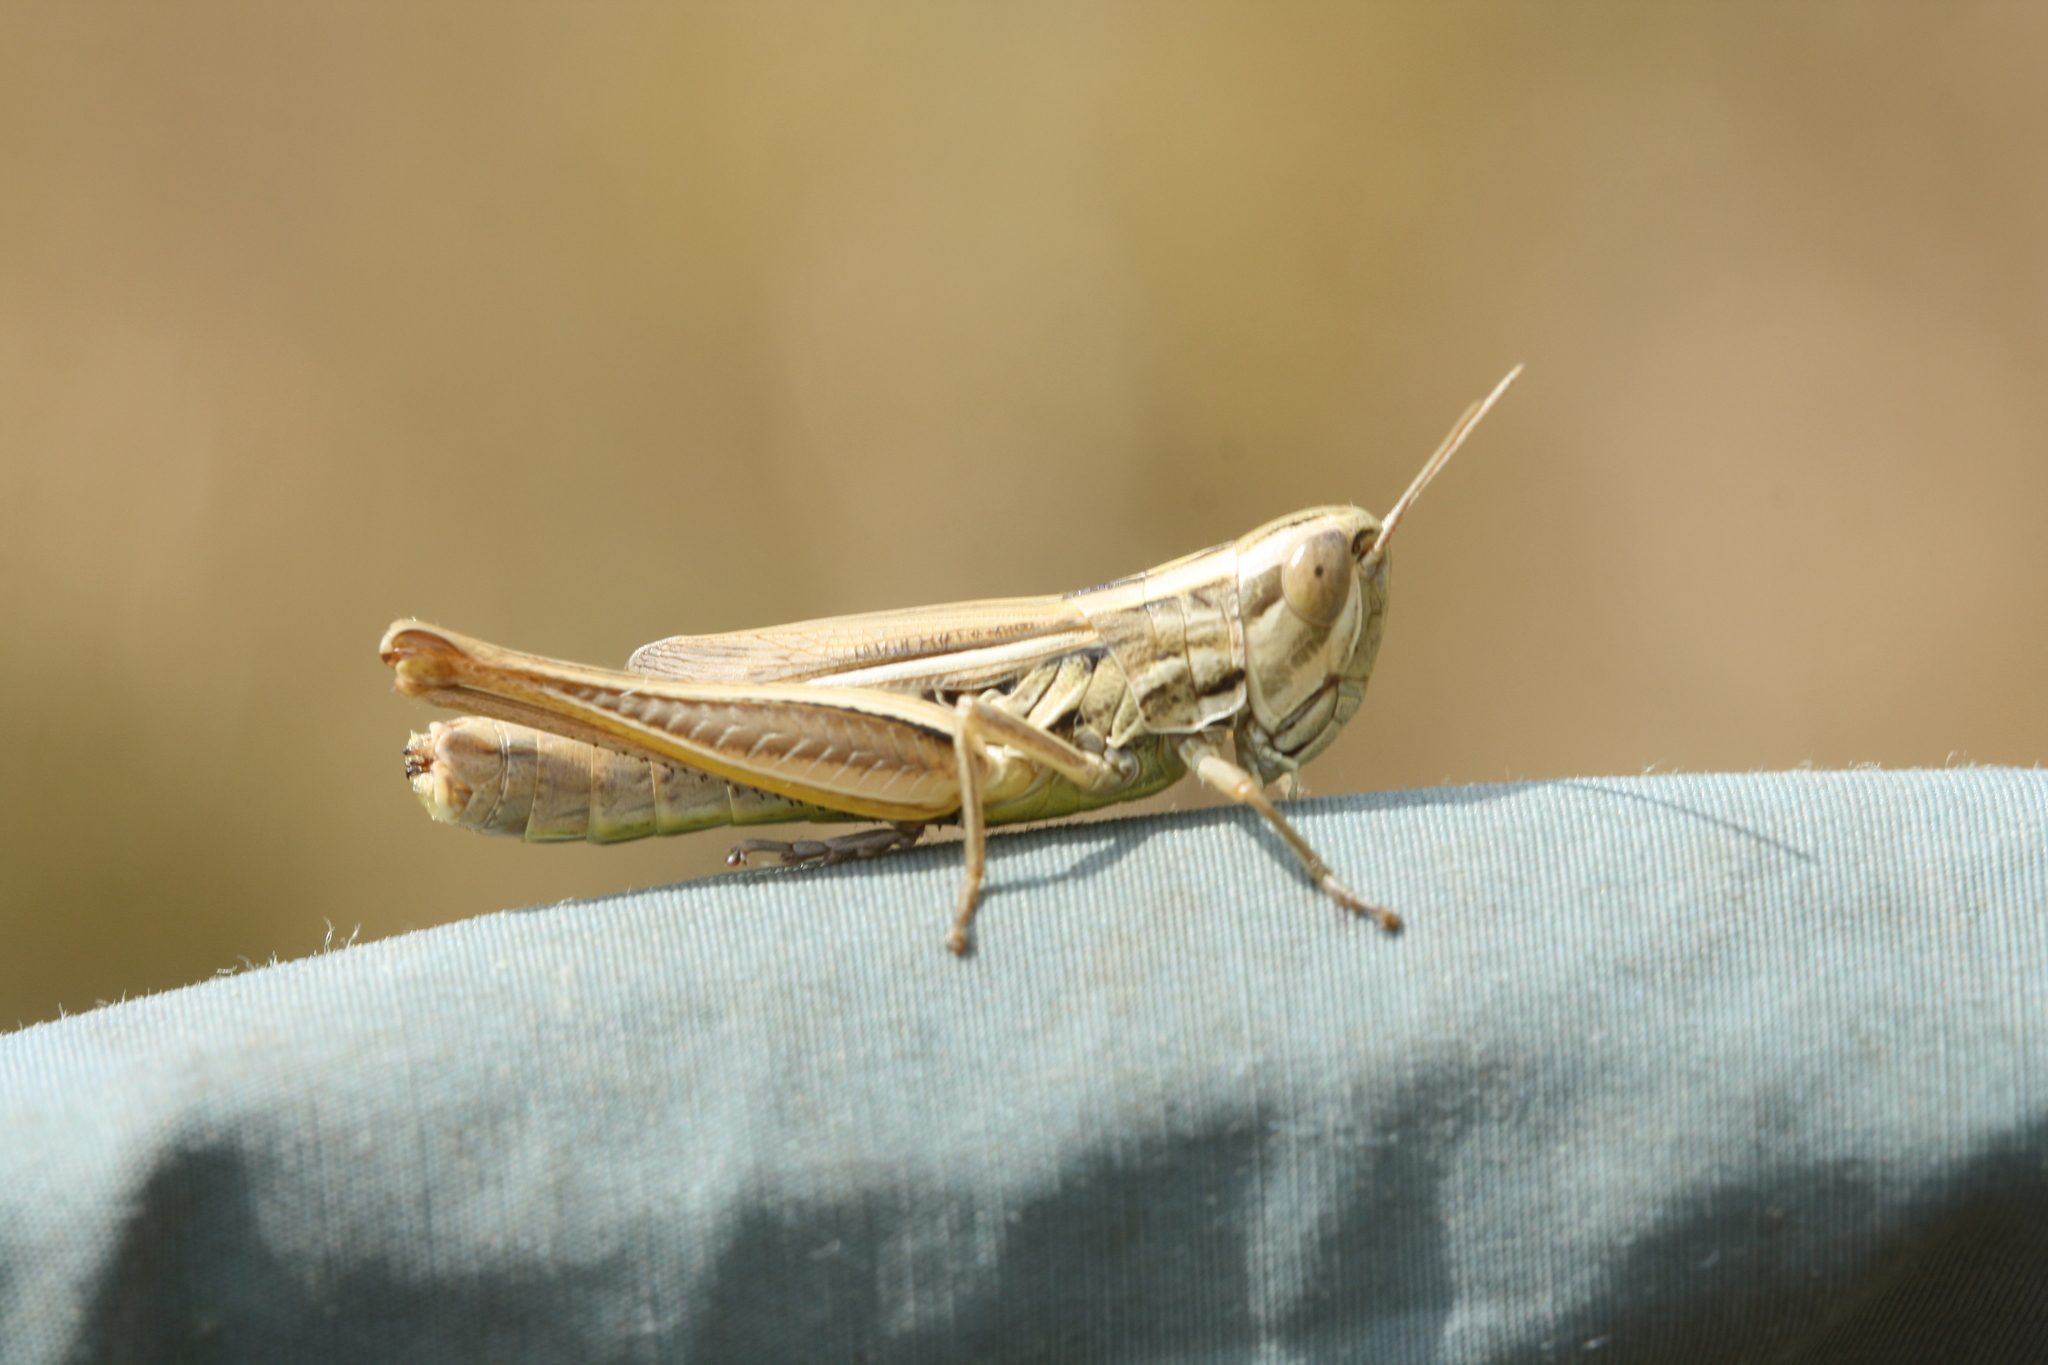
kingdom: Animalia
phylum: Arthropoda
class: Insecta
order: Orthoptera
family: Acrididae
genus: Euchorthippus
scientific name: Euchorthippus declivus
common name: Common straw grasshopper
